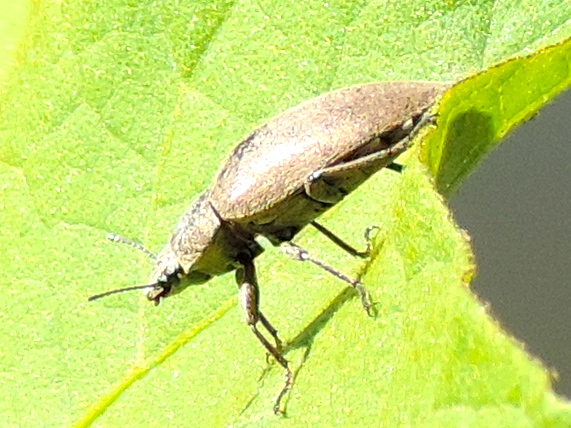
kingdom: Animalia
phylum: Arthropoda
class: Insecta
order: Coleoptera
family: Tenebrionidae
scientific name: Tenebrionidae
